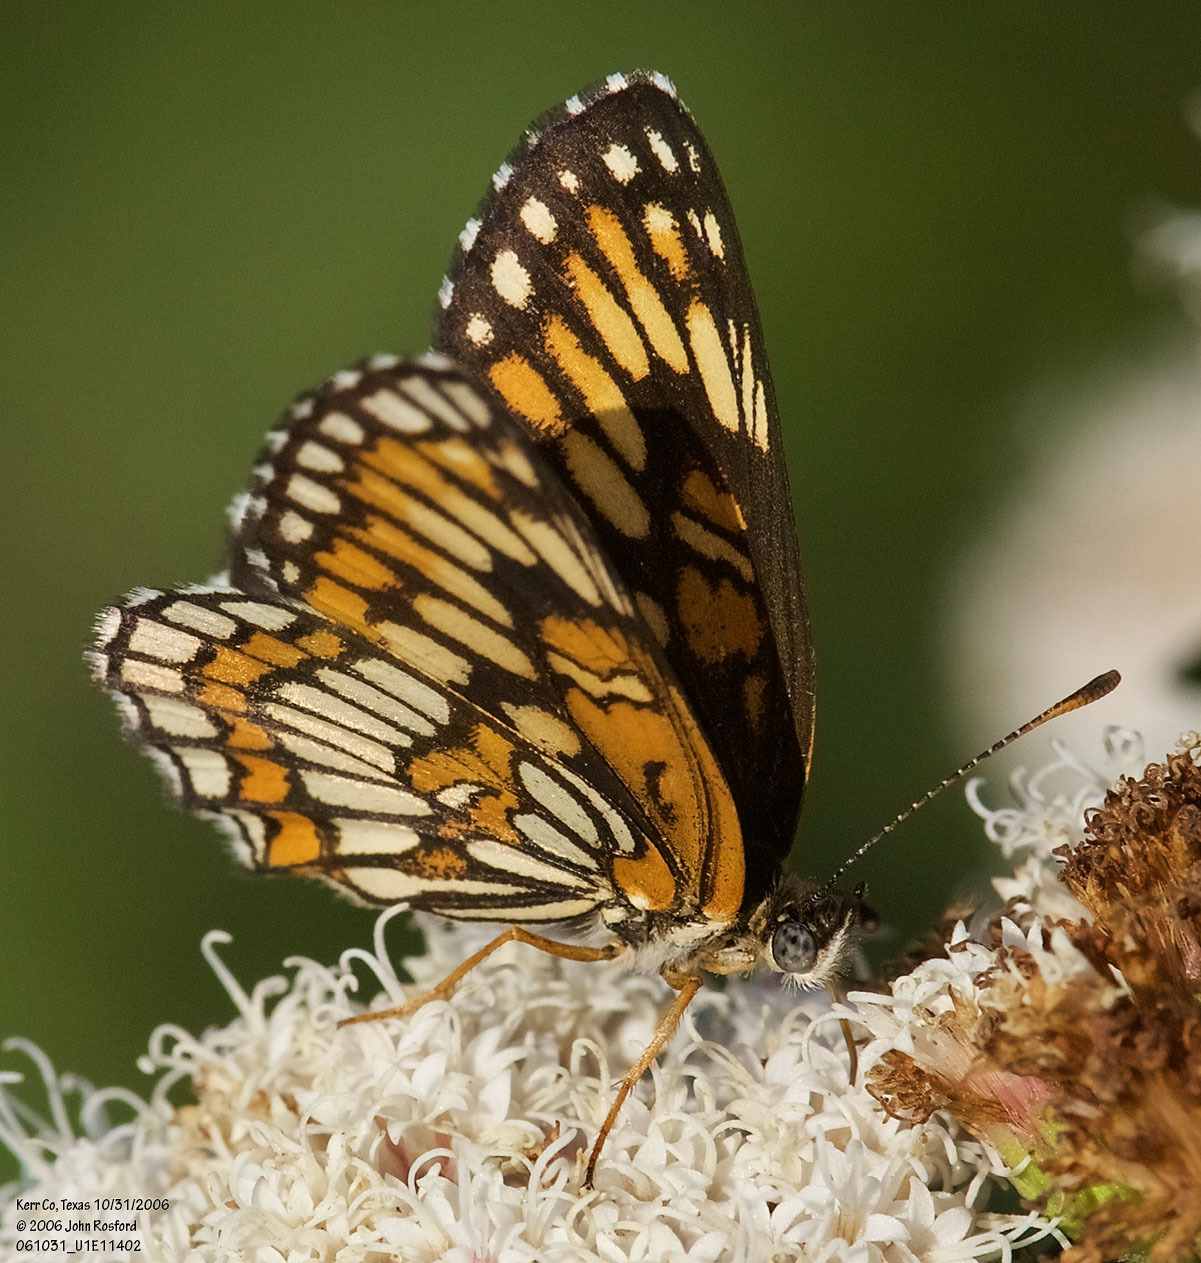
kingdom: Animalia
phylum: Arthropoda
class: Insecta
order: Lepidoptera
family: Nymphalidae
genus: Thessalia
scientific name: Thessalia theona
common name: Nymphalid moth
